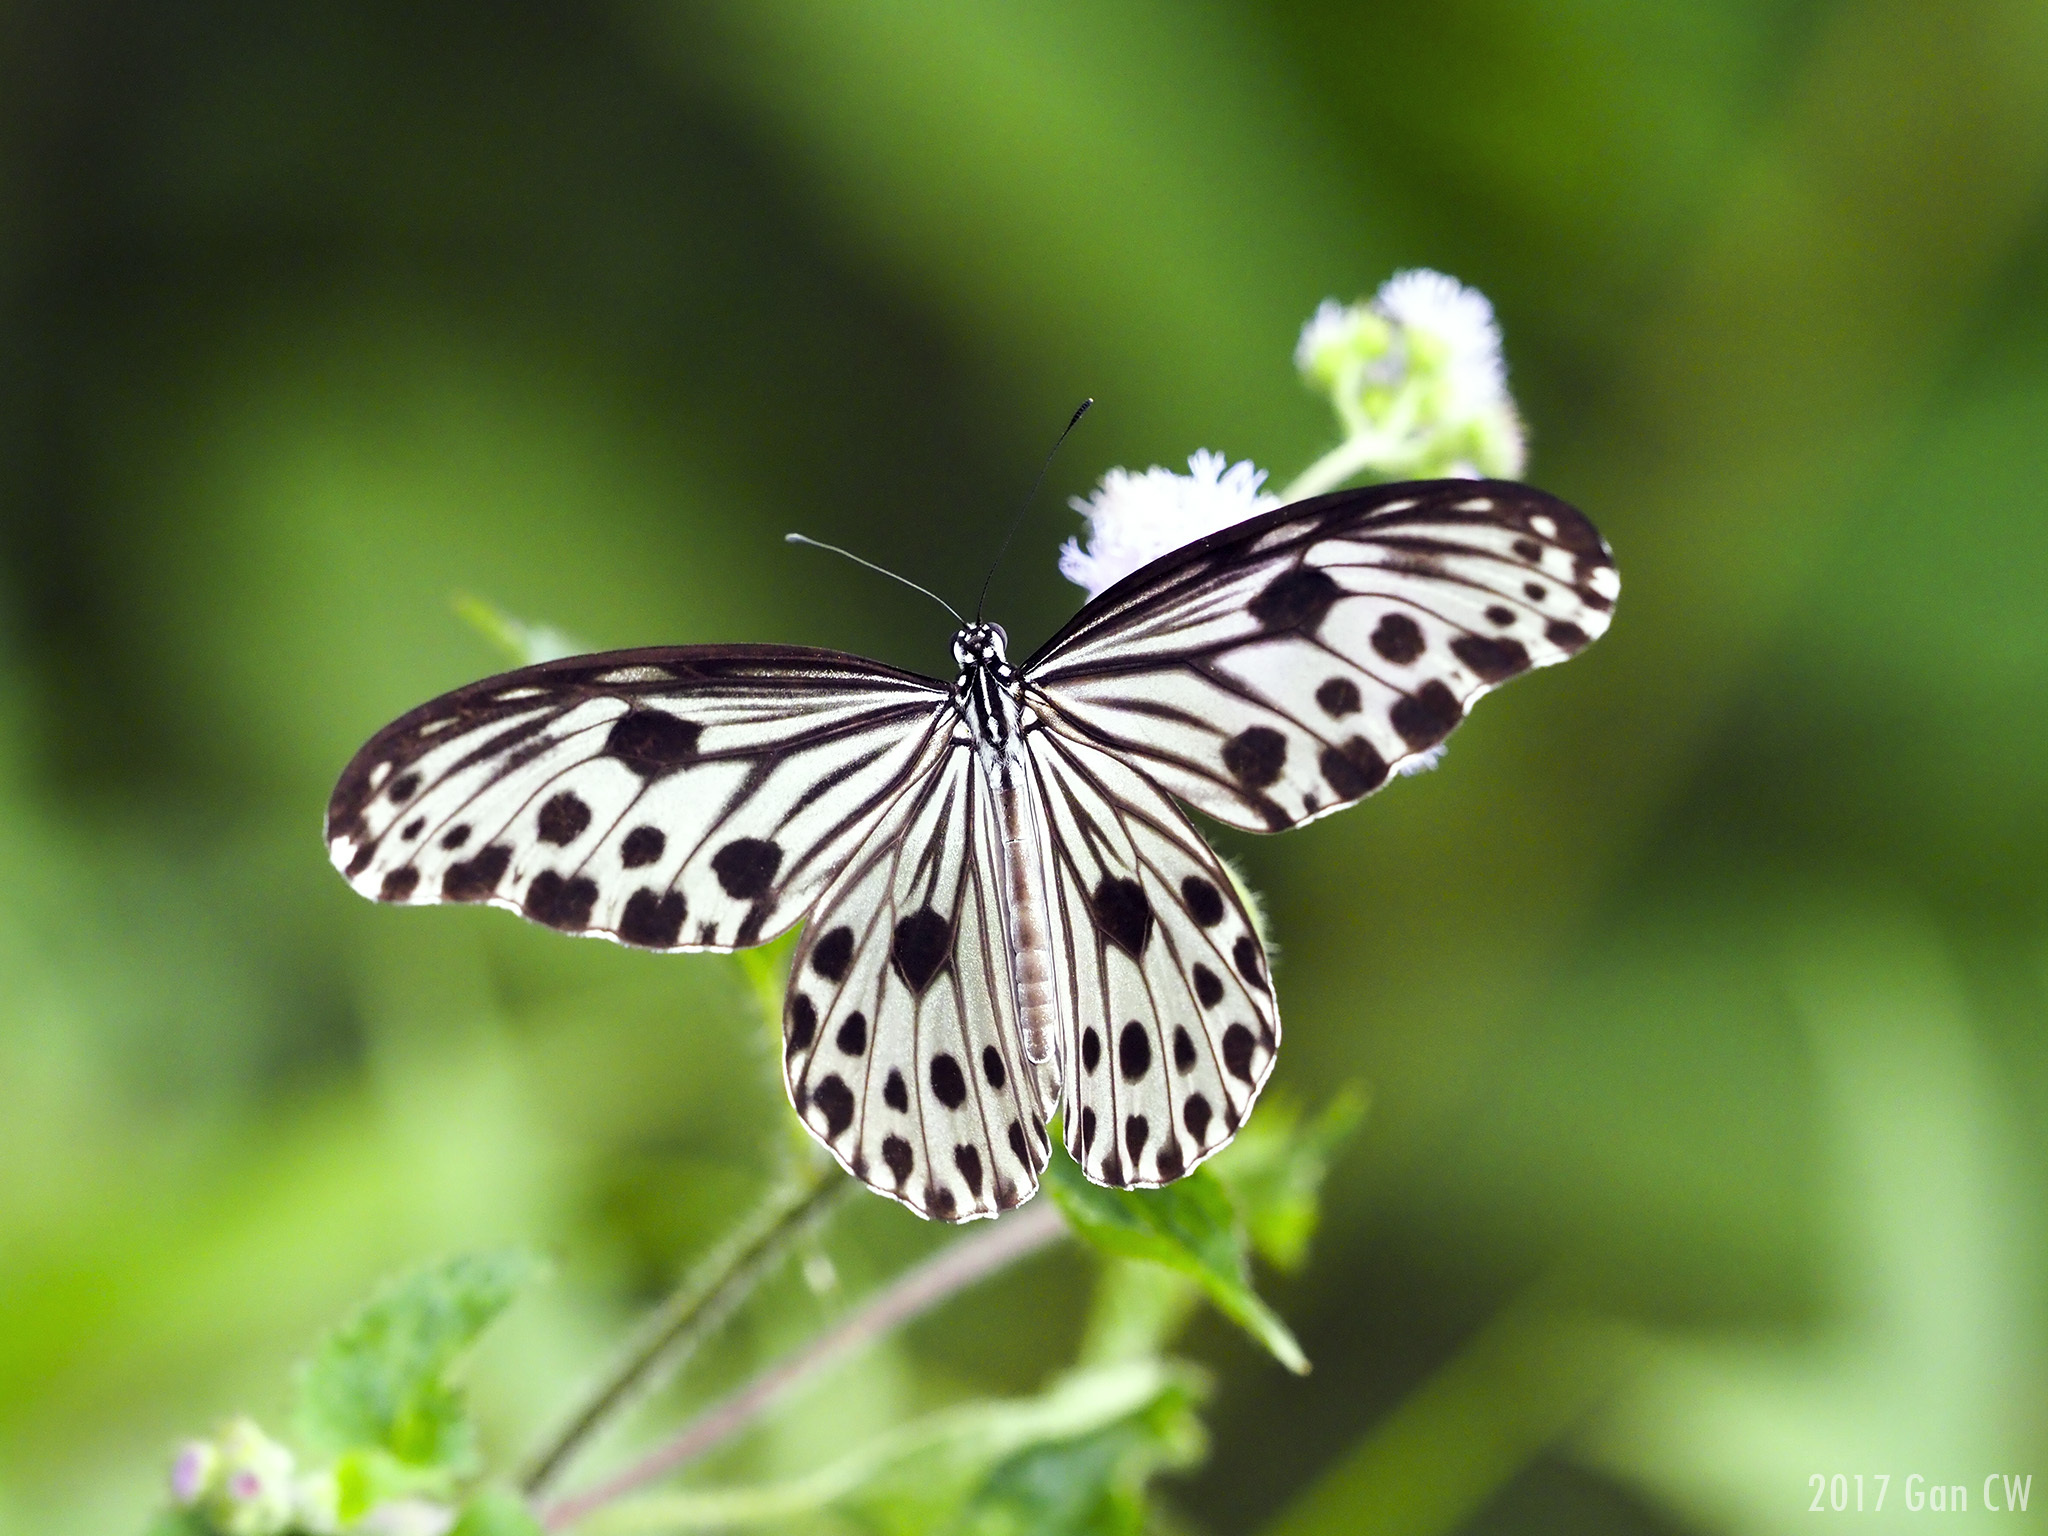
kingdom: Animalia
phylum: Arthropoda
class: Insecta
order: Lepidoptera
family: Nymphalidae
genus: Ideopsis
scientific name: Ideopsis gaura
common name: Smaller wood nymph
